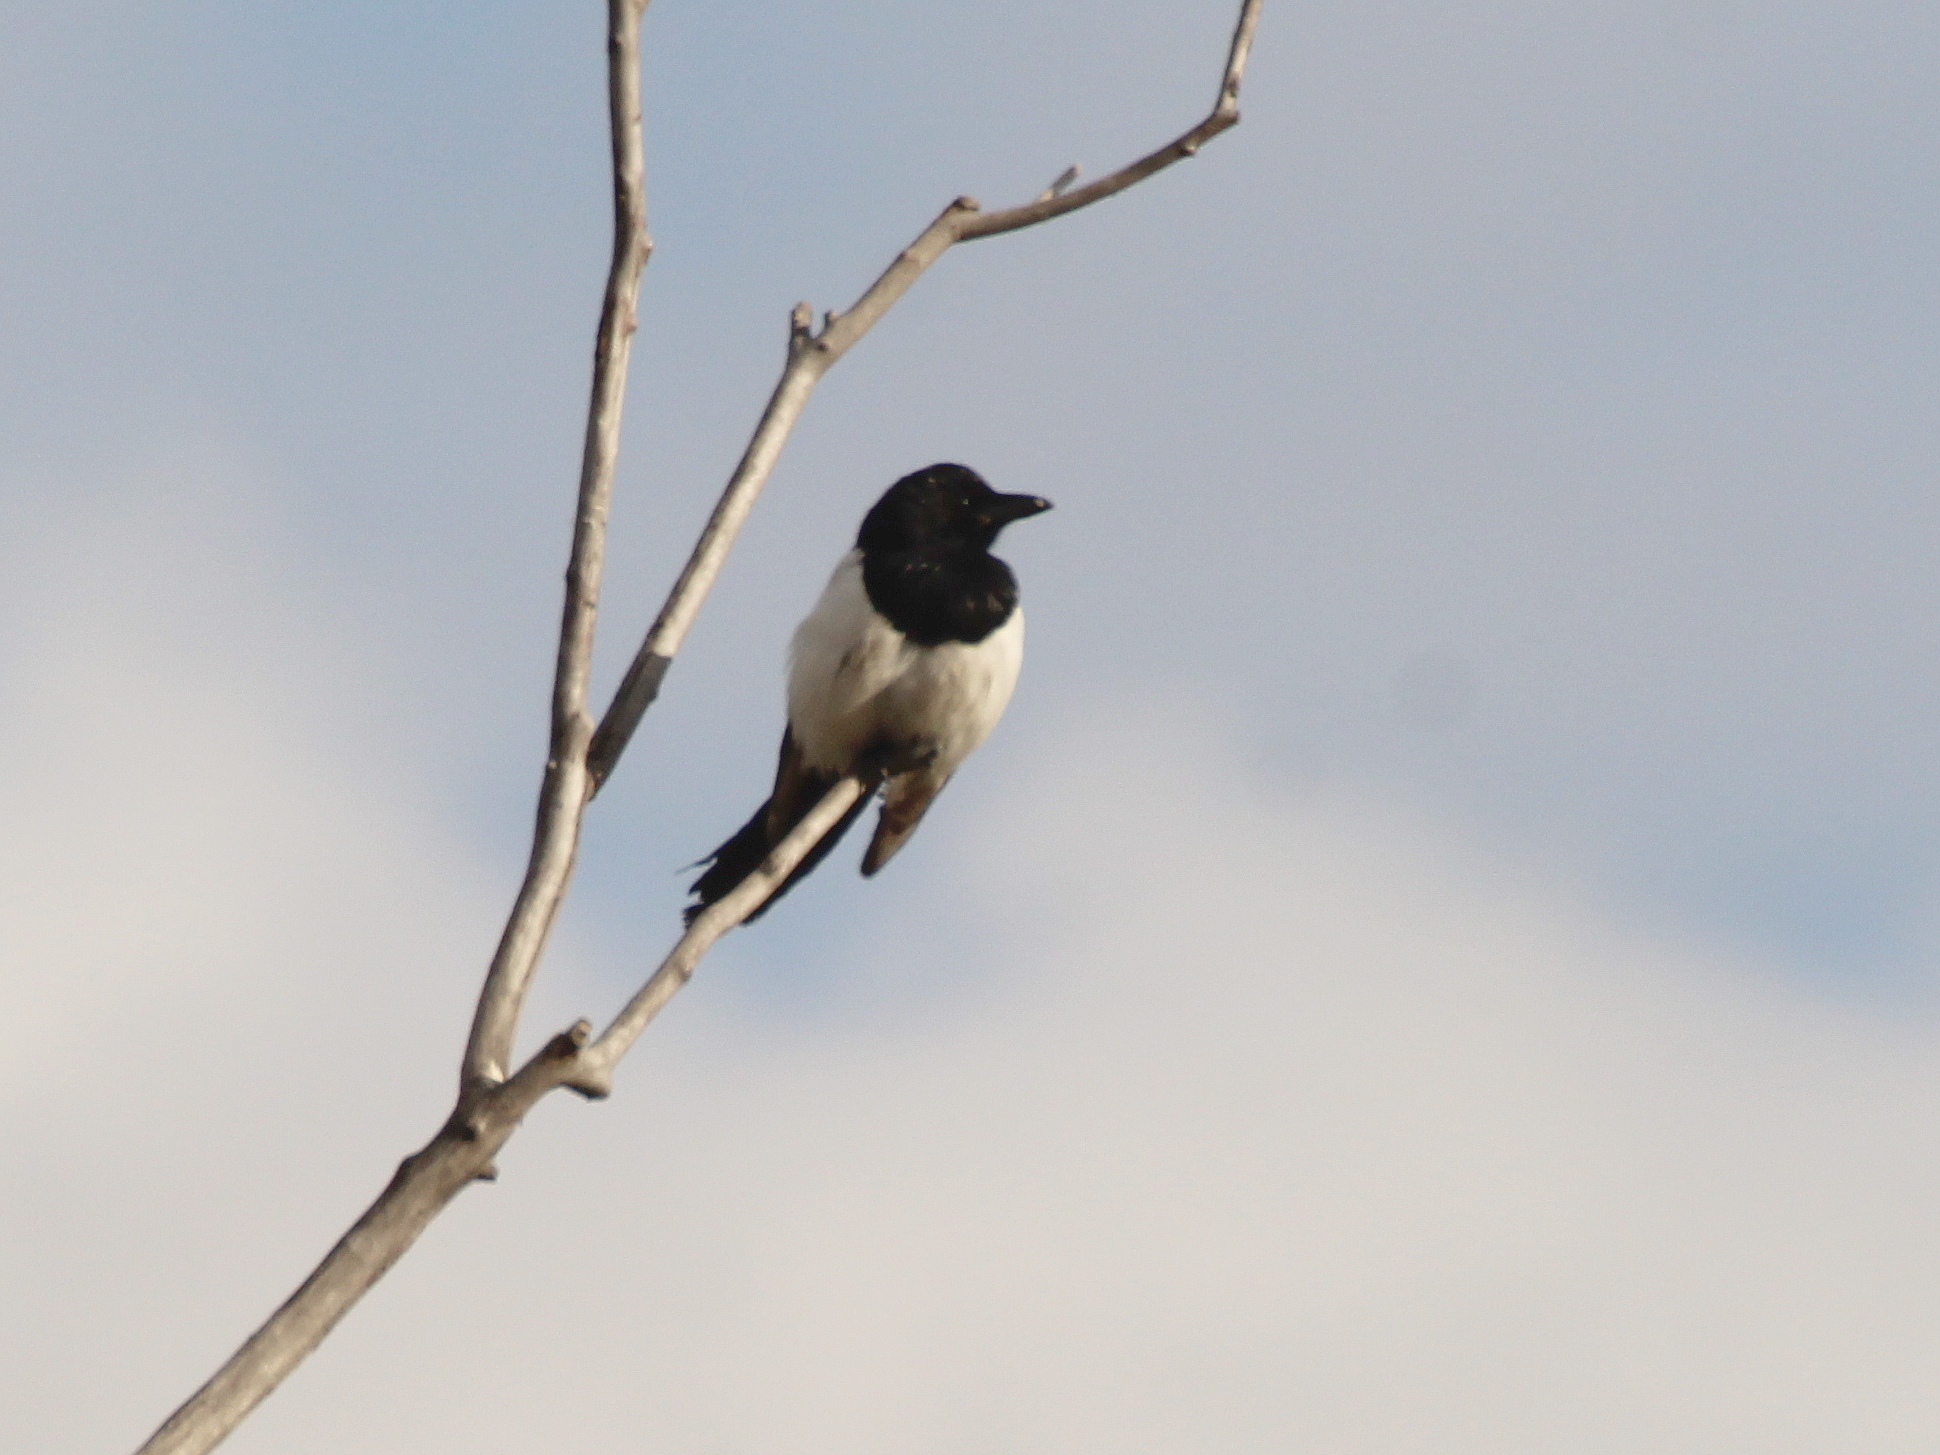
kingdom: Animalia
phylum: Chordata
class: Aves
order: Passeriformes
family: Corvidae
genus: Pica
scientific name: Pica pica
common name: Eurasian magpie
